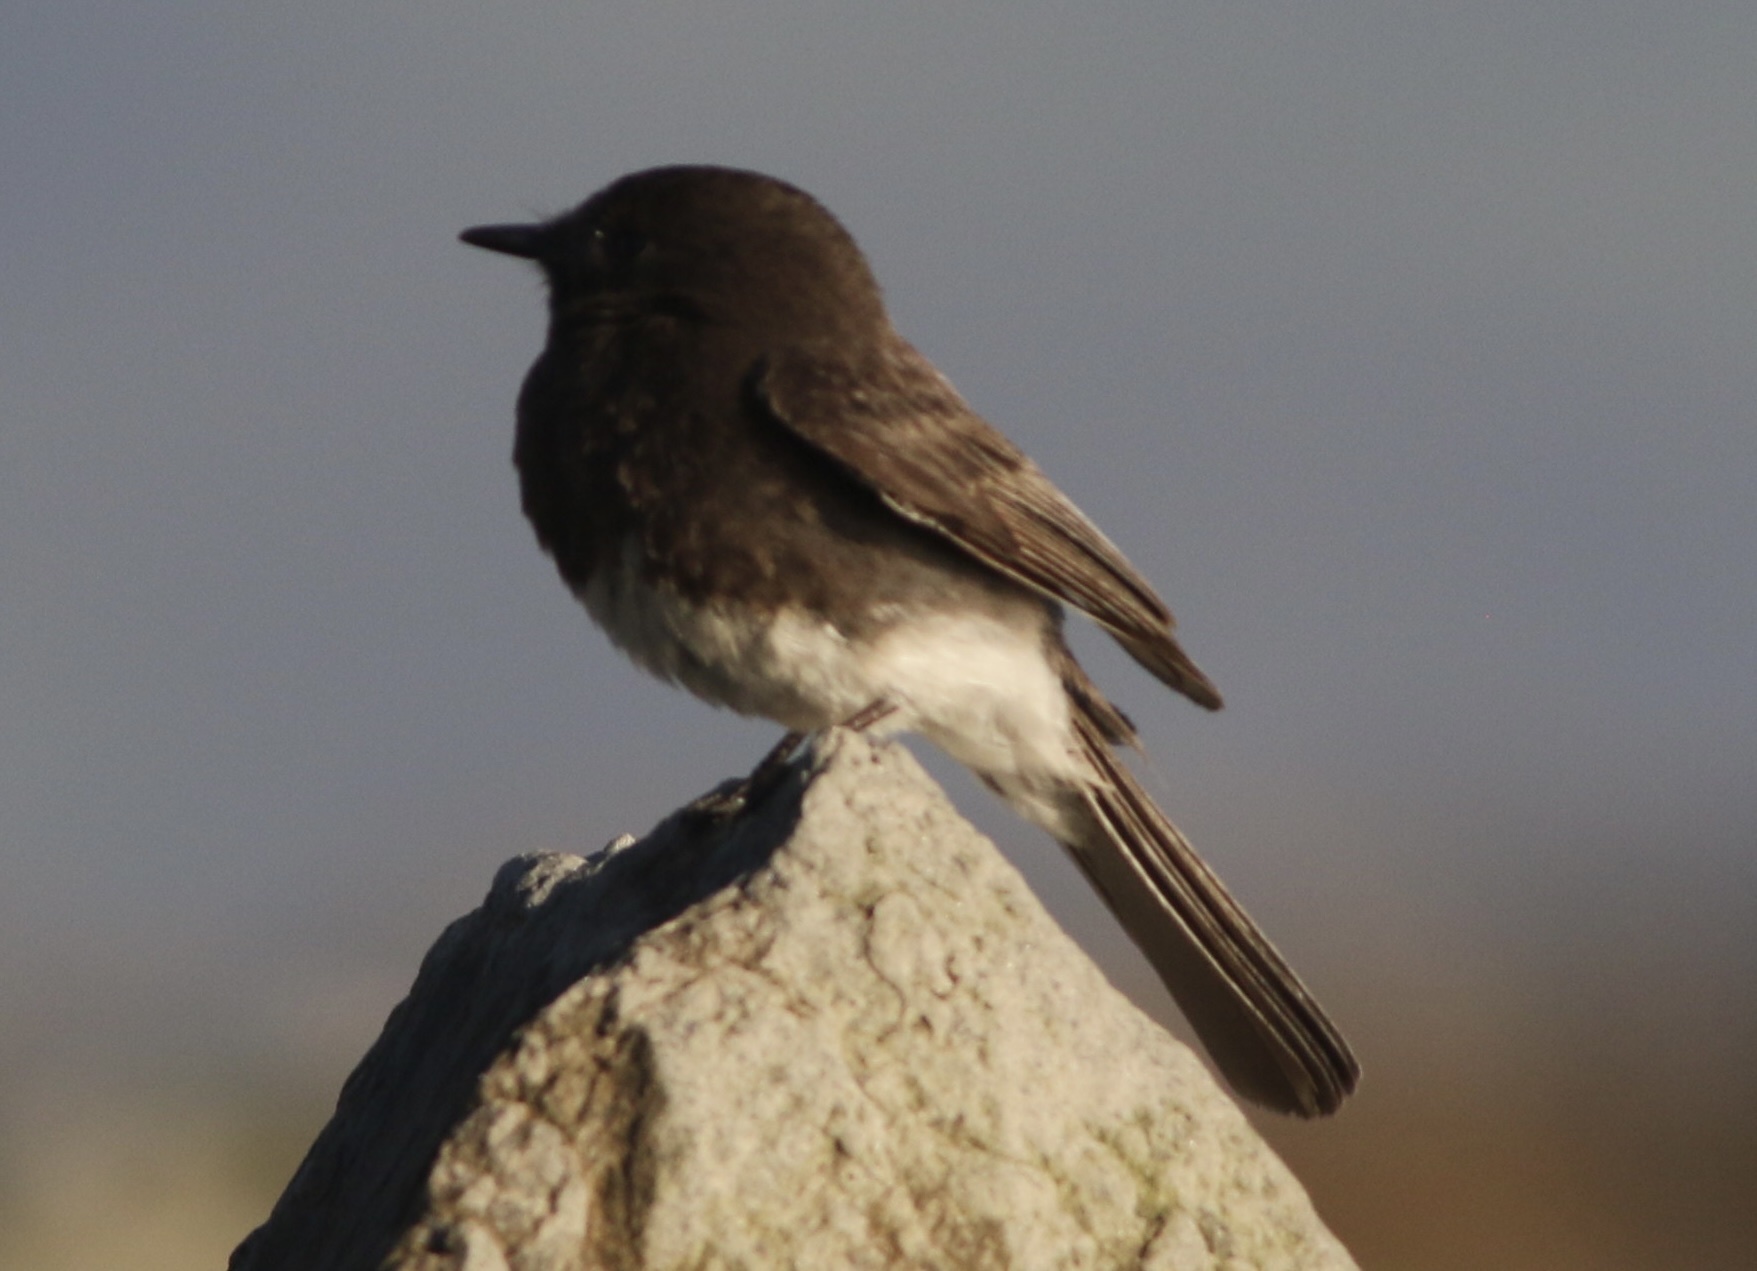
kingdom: Animalia
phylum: Chordata
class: Aves
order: Passeriformes
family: Tyrannidae
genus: Sayornis
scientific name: Sayornis nigricans
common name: Black phoebe
